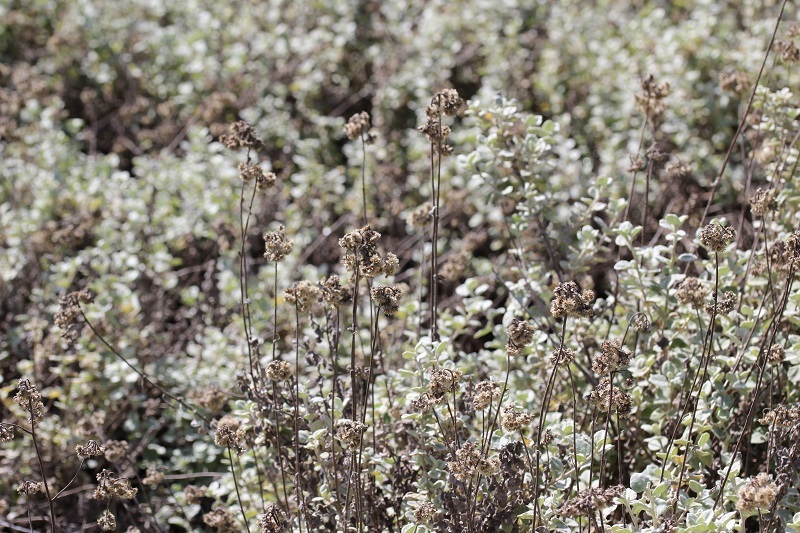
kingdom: Plantae
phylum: Tracheophyta
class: Magnoliopsida
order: Asterales
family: Asteraceae
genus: Helichrysum
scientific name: Helichrysum petiolare
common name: Licorice-plant
